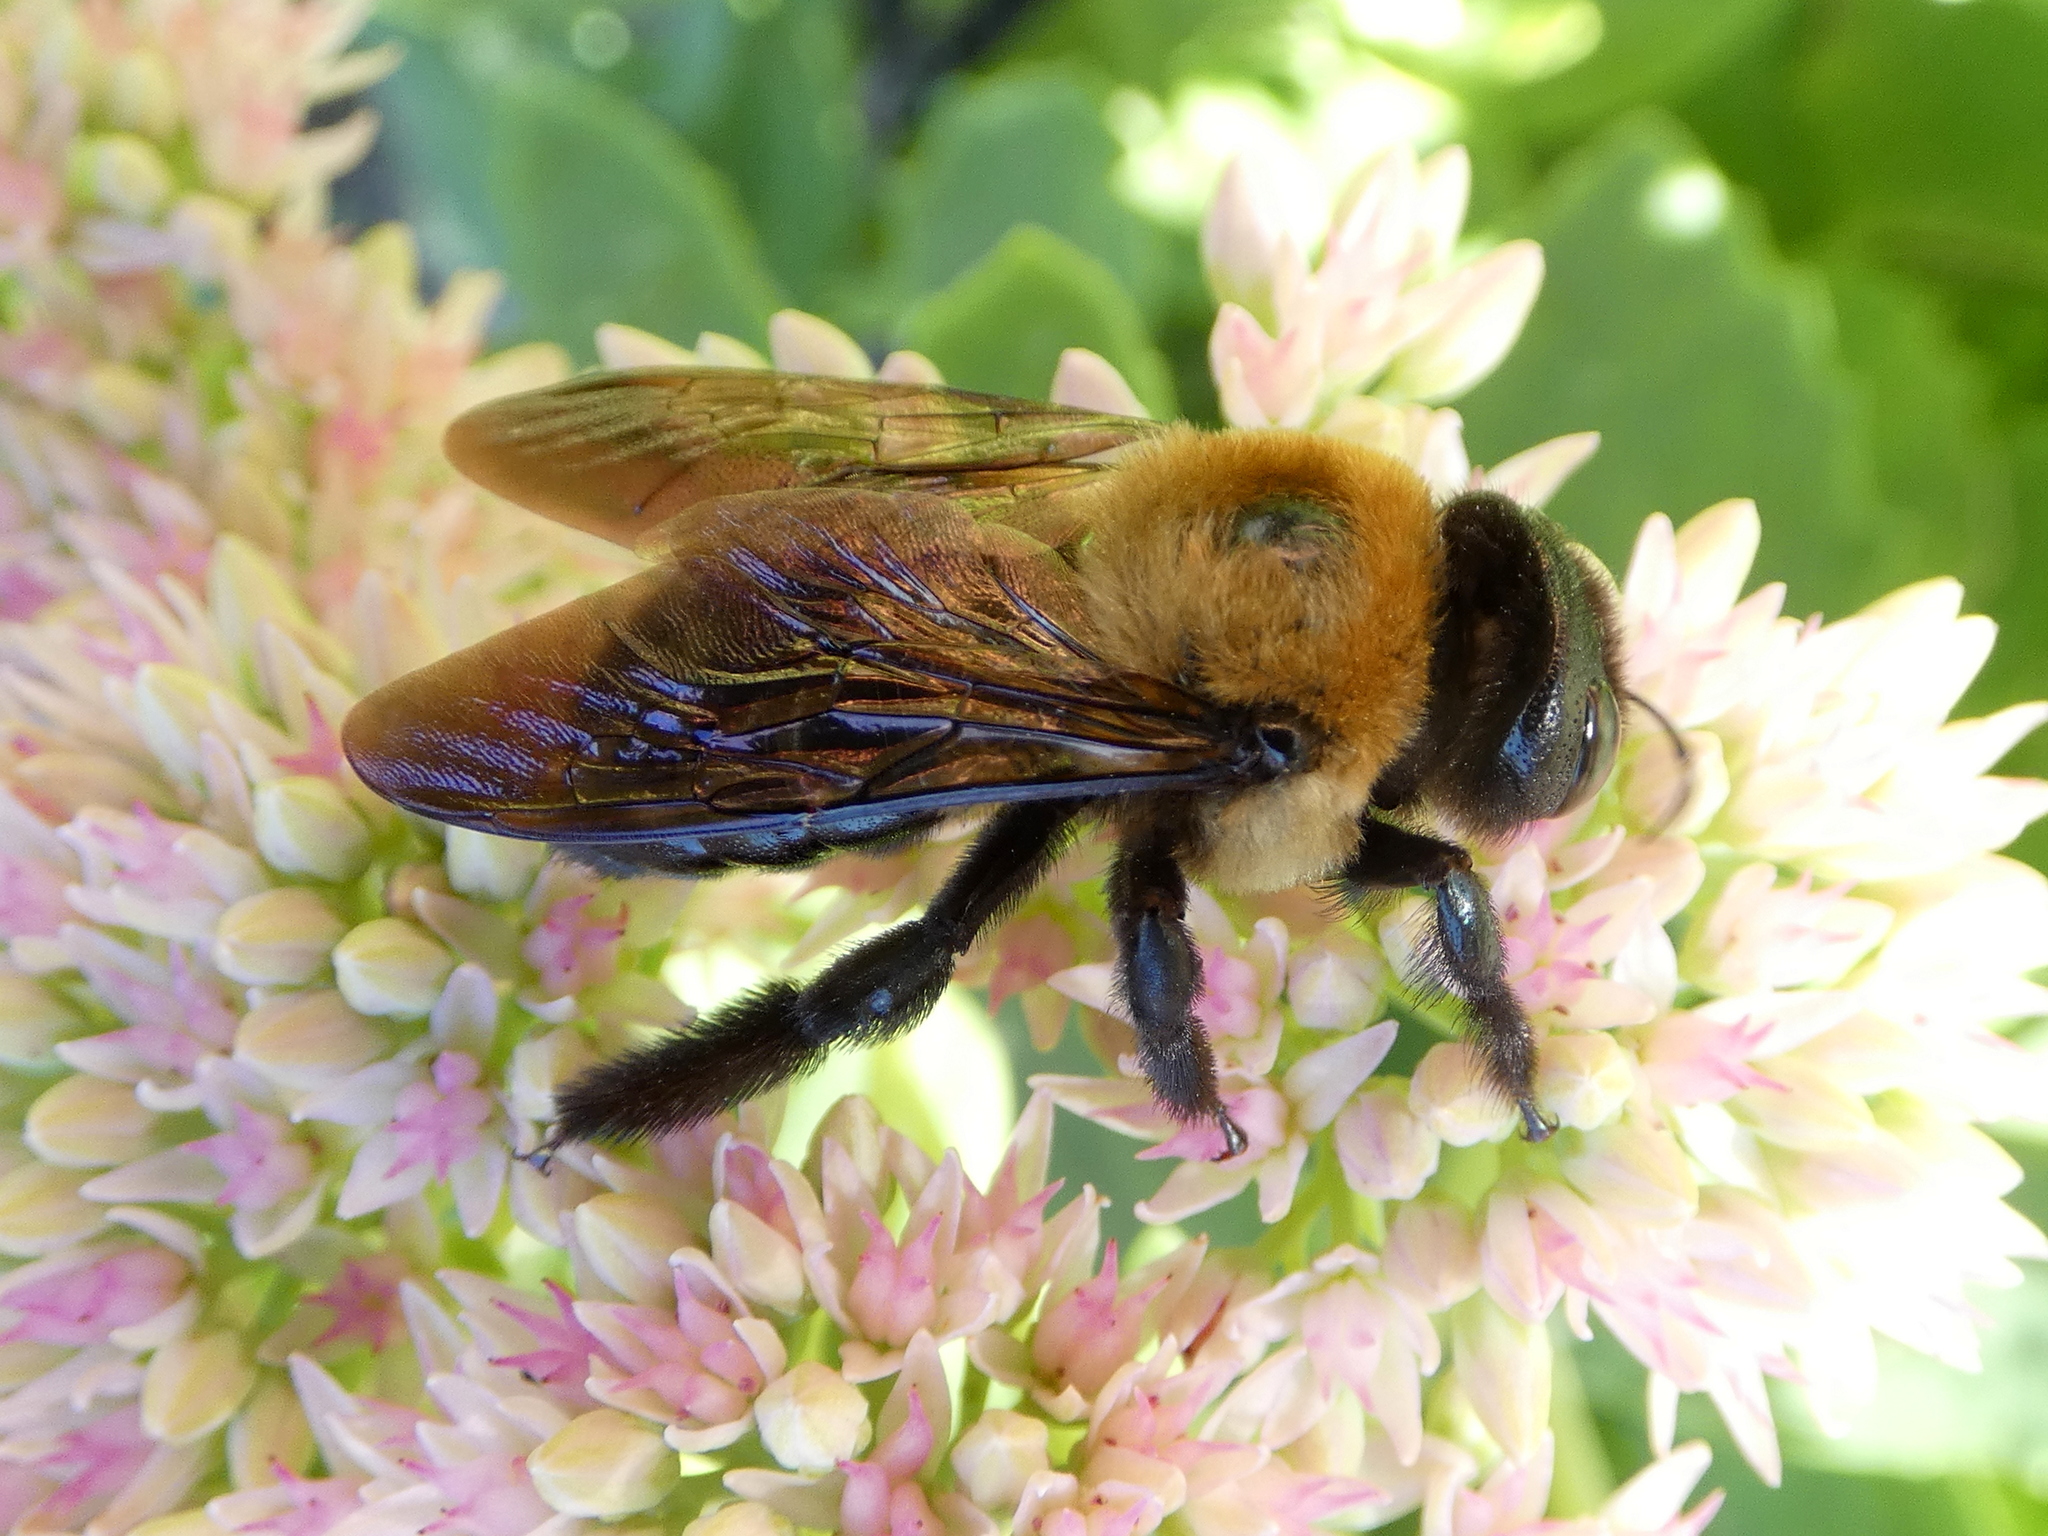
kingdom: Animalia
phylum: Arthropoda
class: Insecta
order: Hymenoptera
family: Apidae
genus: Xylocopa
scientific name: Xylocopa virginica
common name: Carpenter bee
